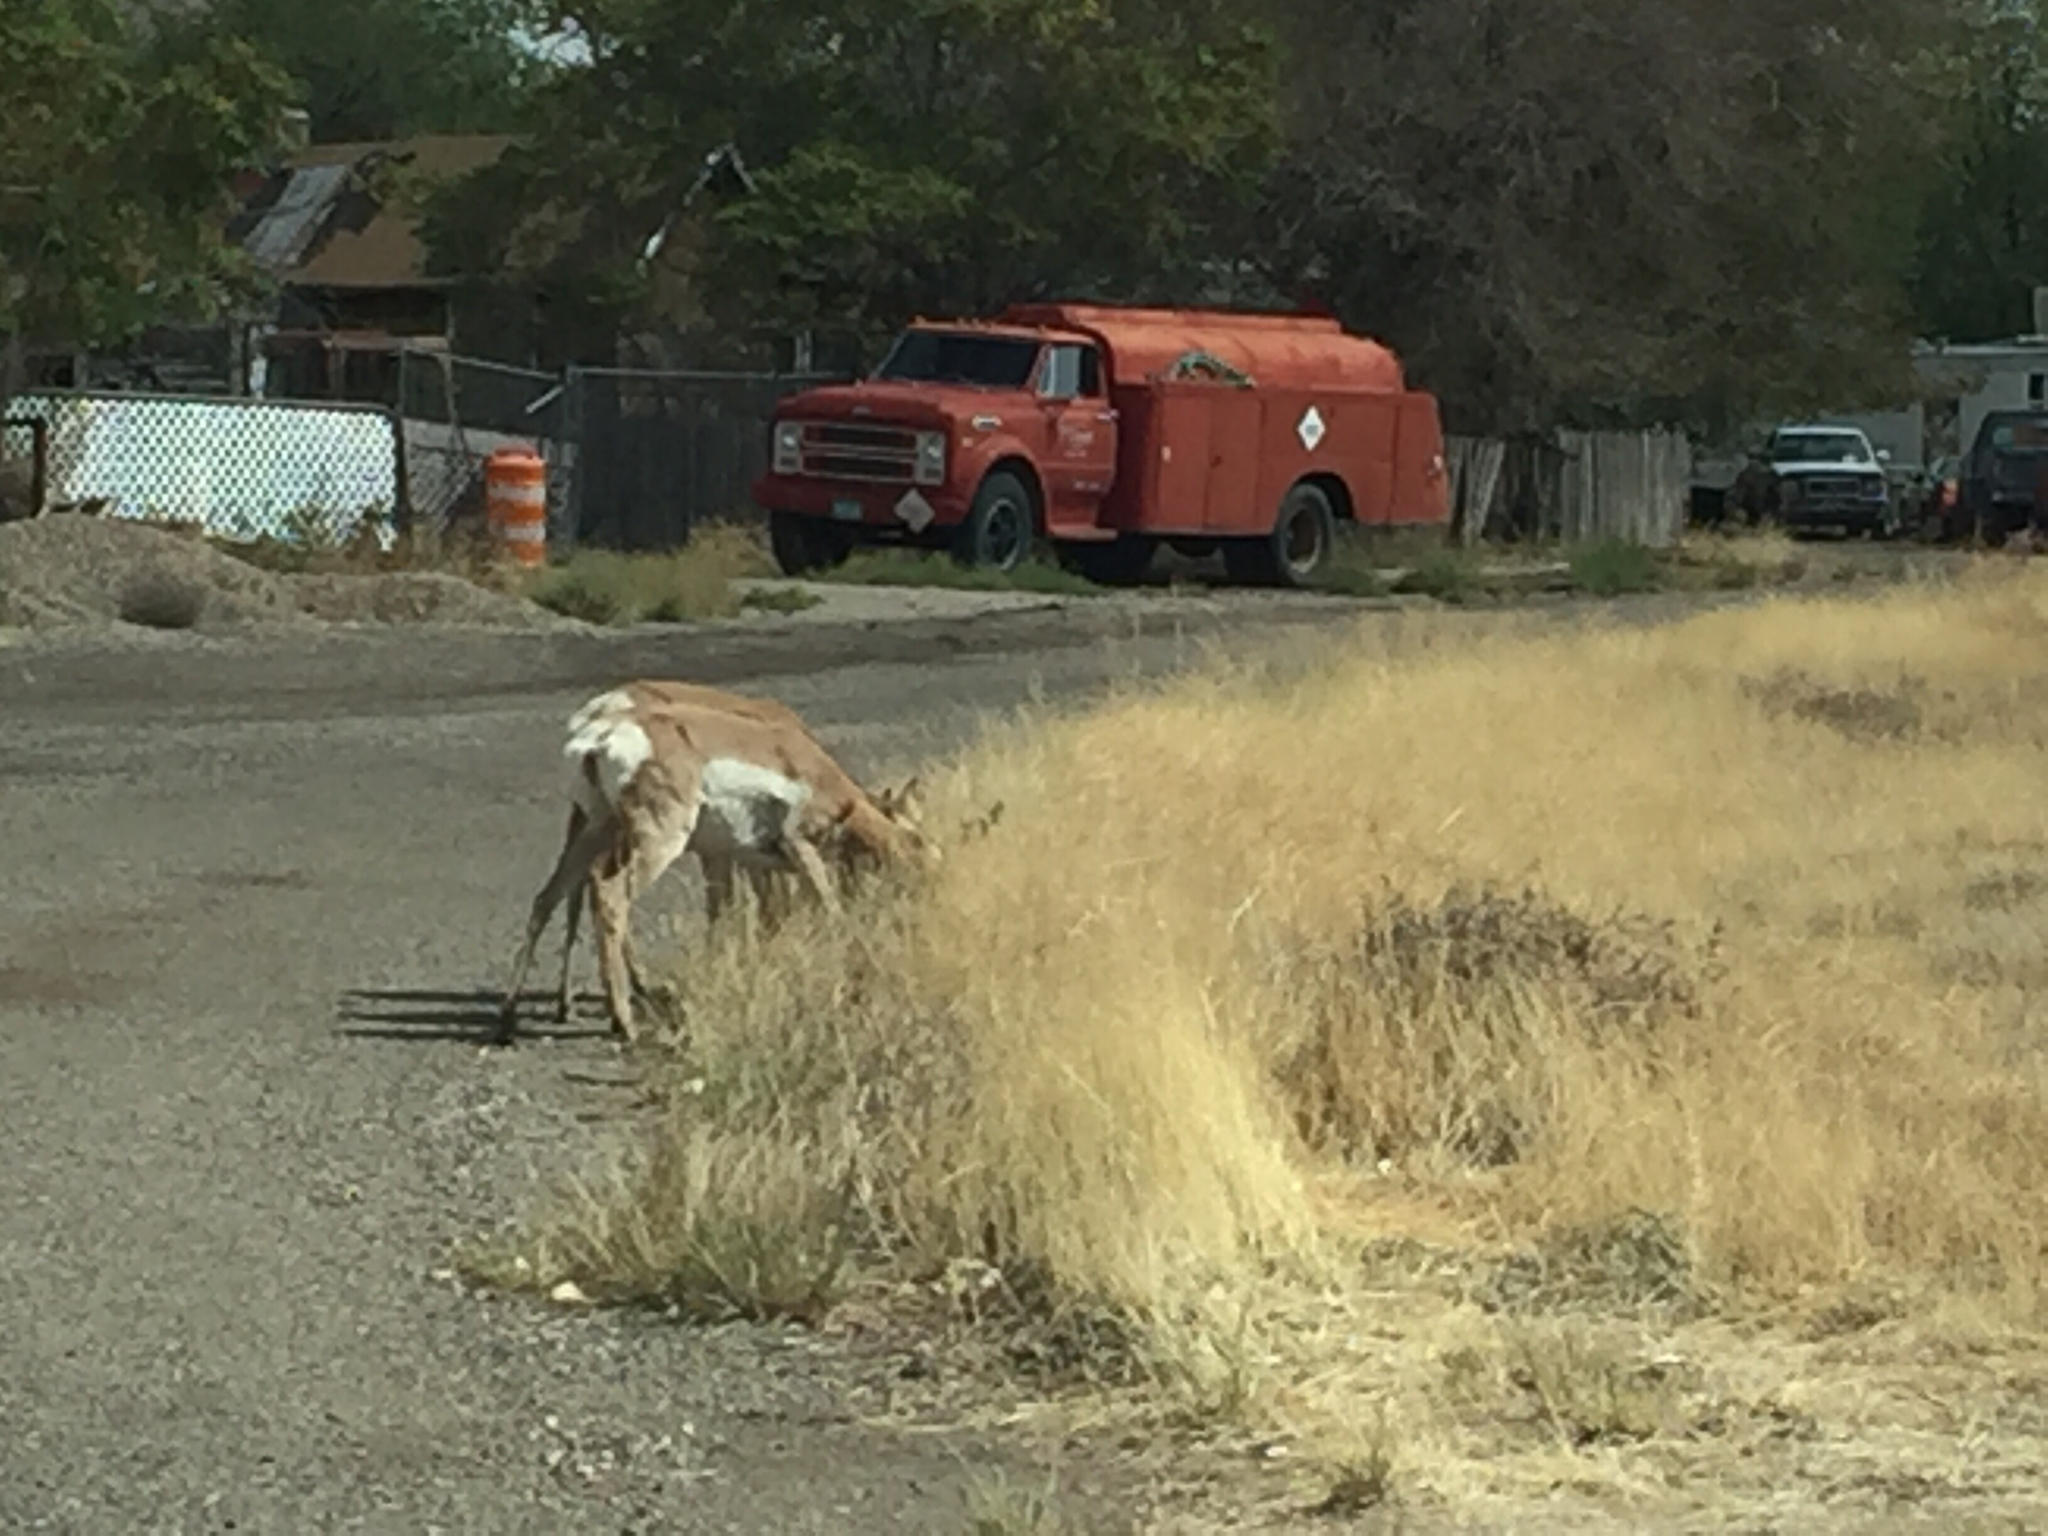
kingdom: Animalia
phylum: Chordata
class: Mammalia
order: Artiodactyla
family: Antilocapridae
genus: Antilocapra
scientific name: Antilocapra americana
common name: Pronghorn
